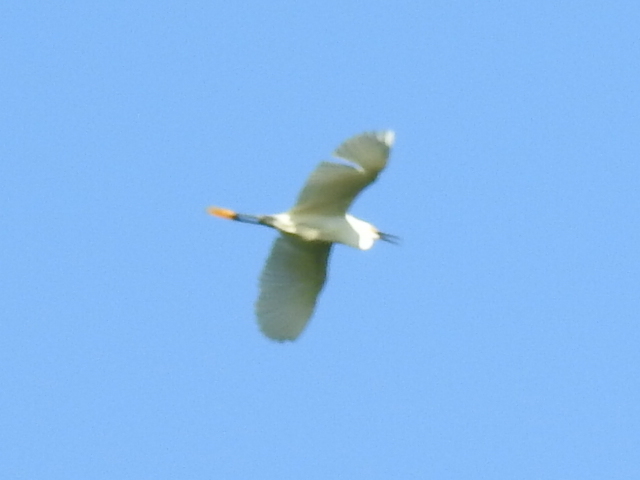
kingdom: Animalia
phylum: Chordata
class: Aves
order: Pelecaniformes
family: Ardeidae
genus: Egretta
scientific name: Egretta thula
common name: Snowy egret
